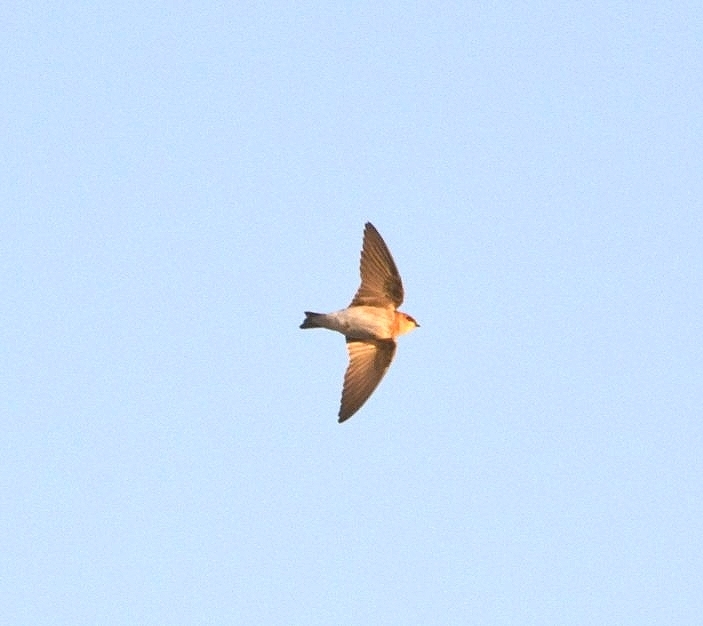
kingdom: Animalia
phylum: Chordata
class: Aves
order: Passeriformes
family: Hirundinidae
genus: Alopochelidon
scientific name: Alopochelidon fucata
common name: Tawny-headed swallow
